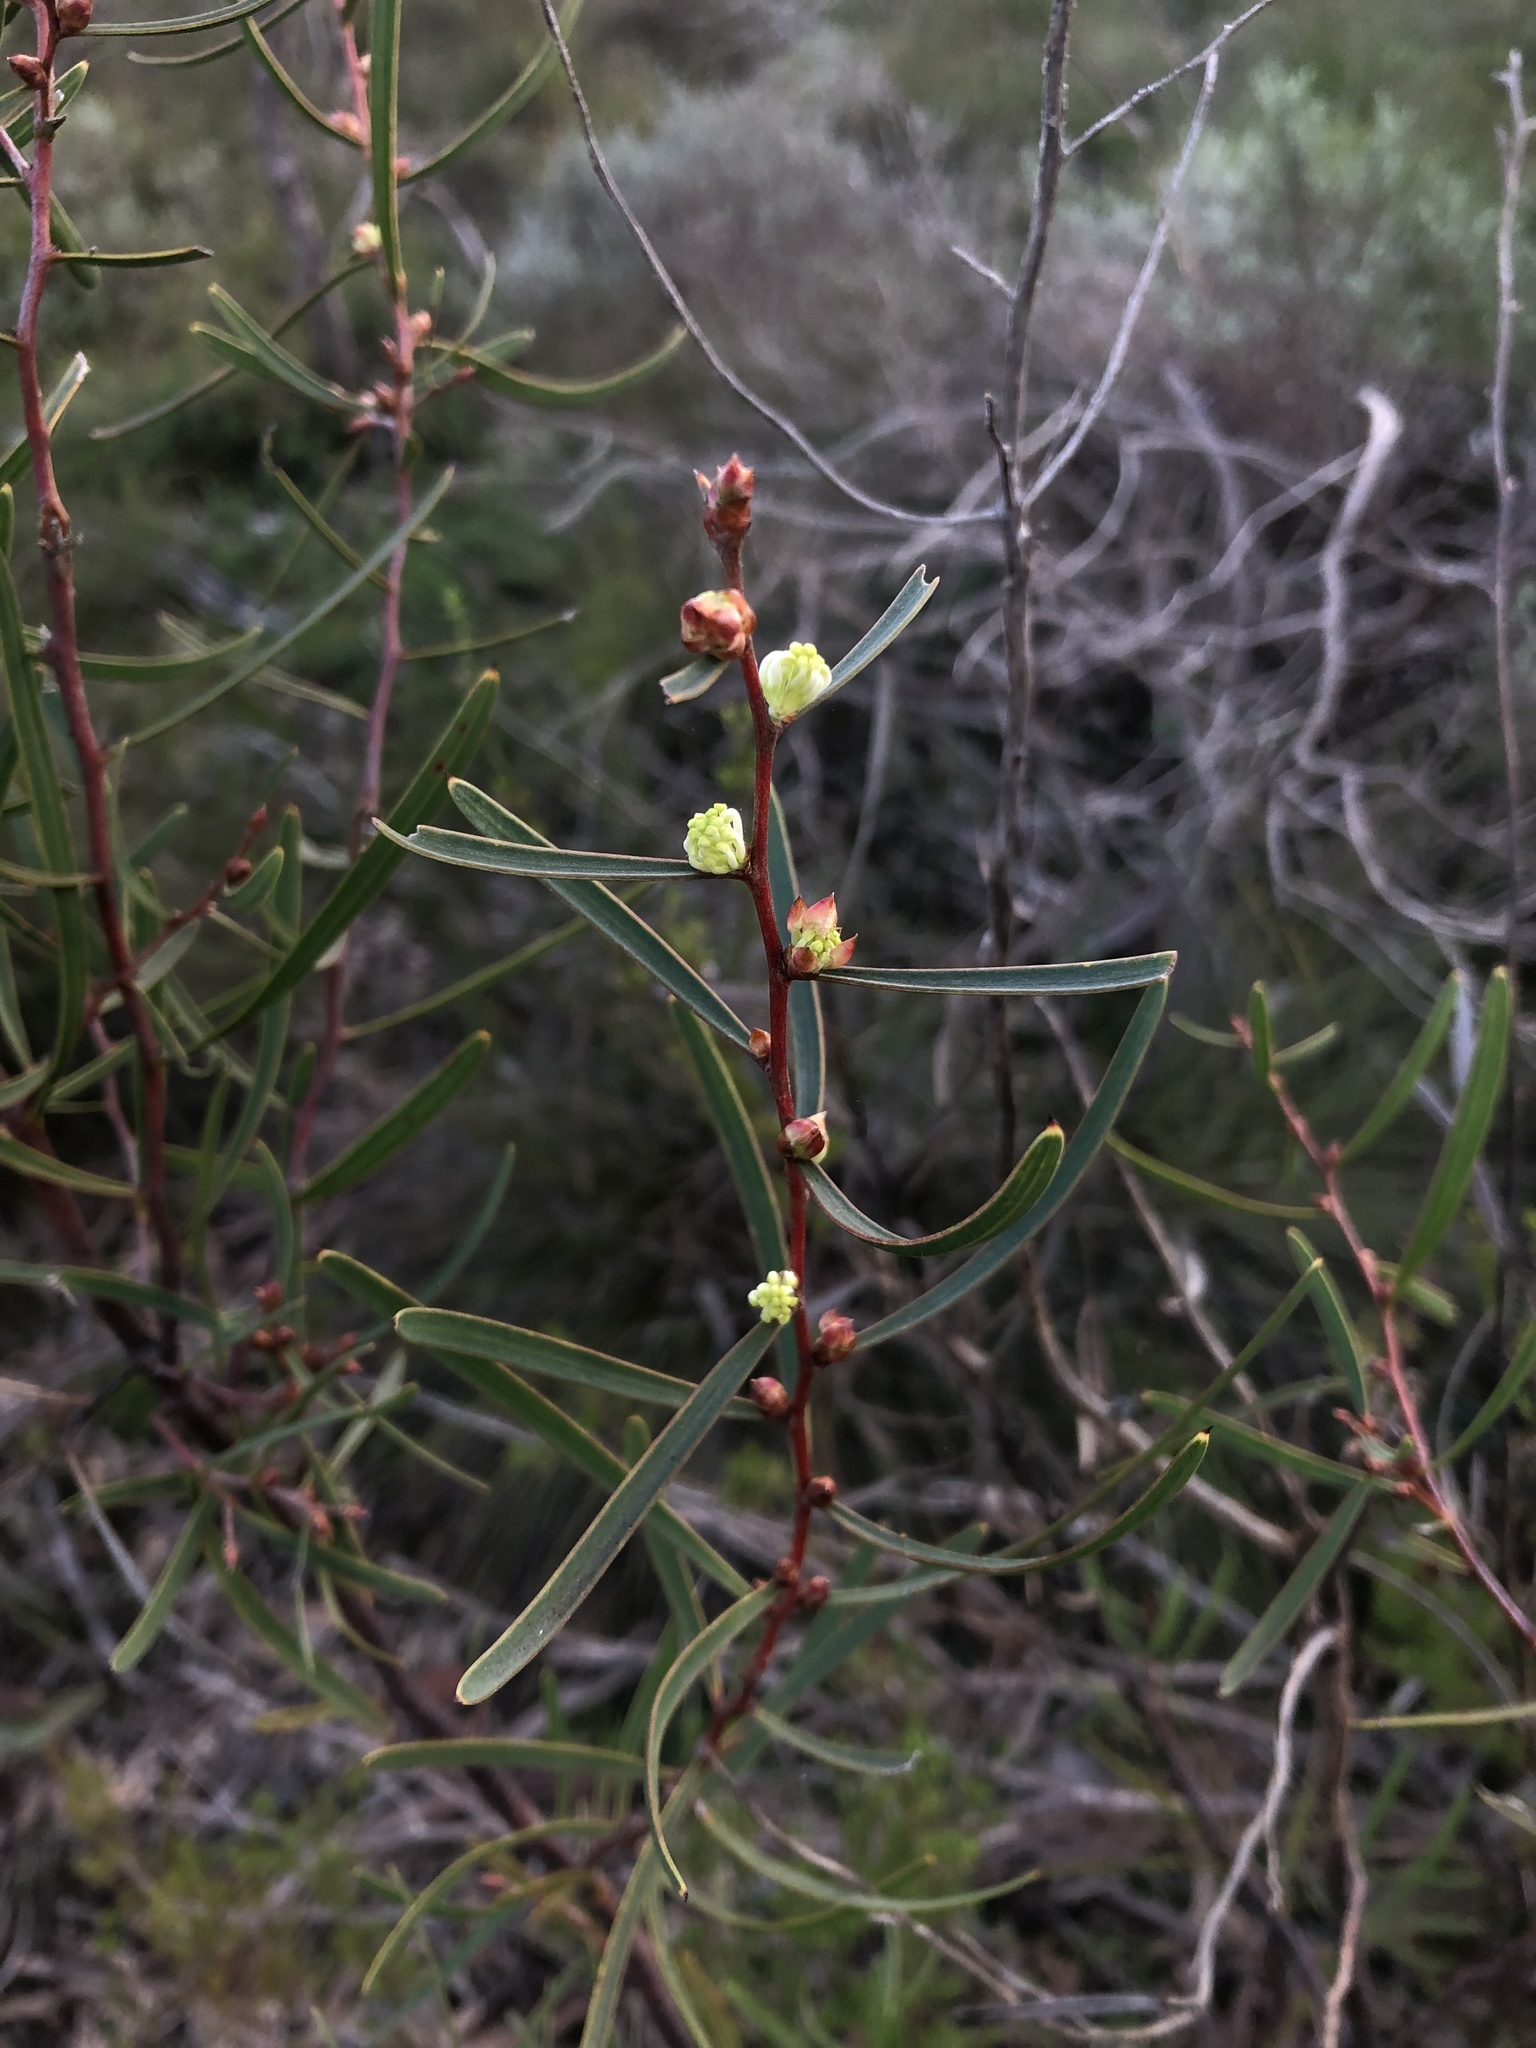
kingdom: Plantae
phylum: Tracheophyta
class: Magnoliopsida
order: Proteales
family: Proteaceae
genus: Hakea
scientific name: Hakea carinata
